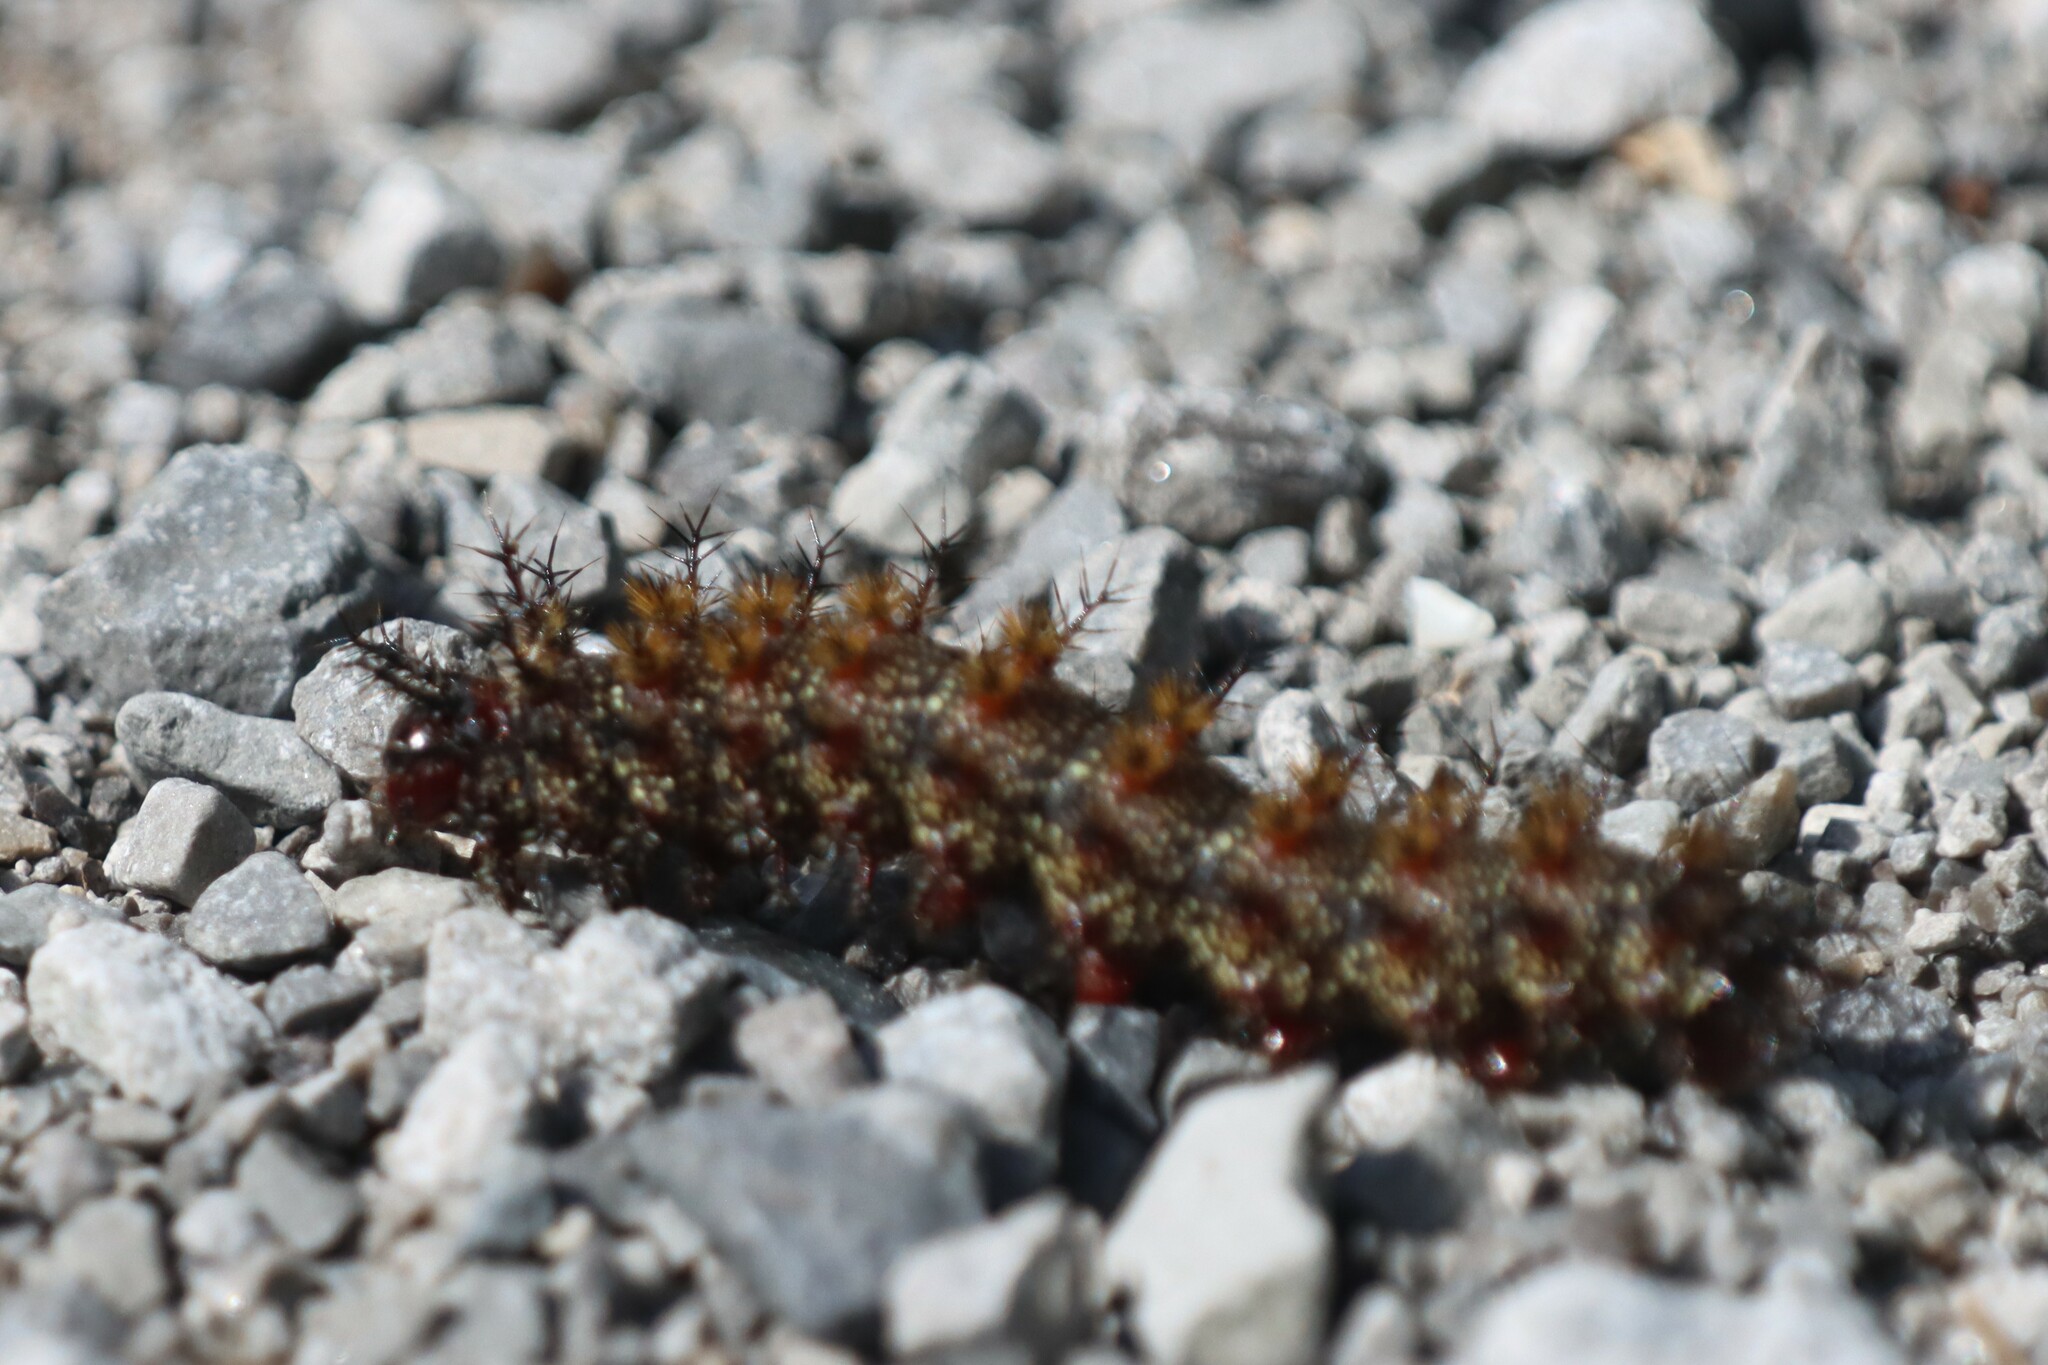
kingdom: Animalia
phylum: Arthropoda
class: Insecta
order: Lepidoptera
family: Saturniidae
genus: Hemileuca
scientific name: Hemileuca maia
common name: Eastern buckmoth
